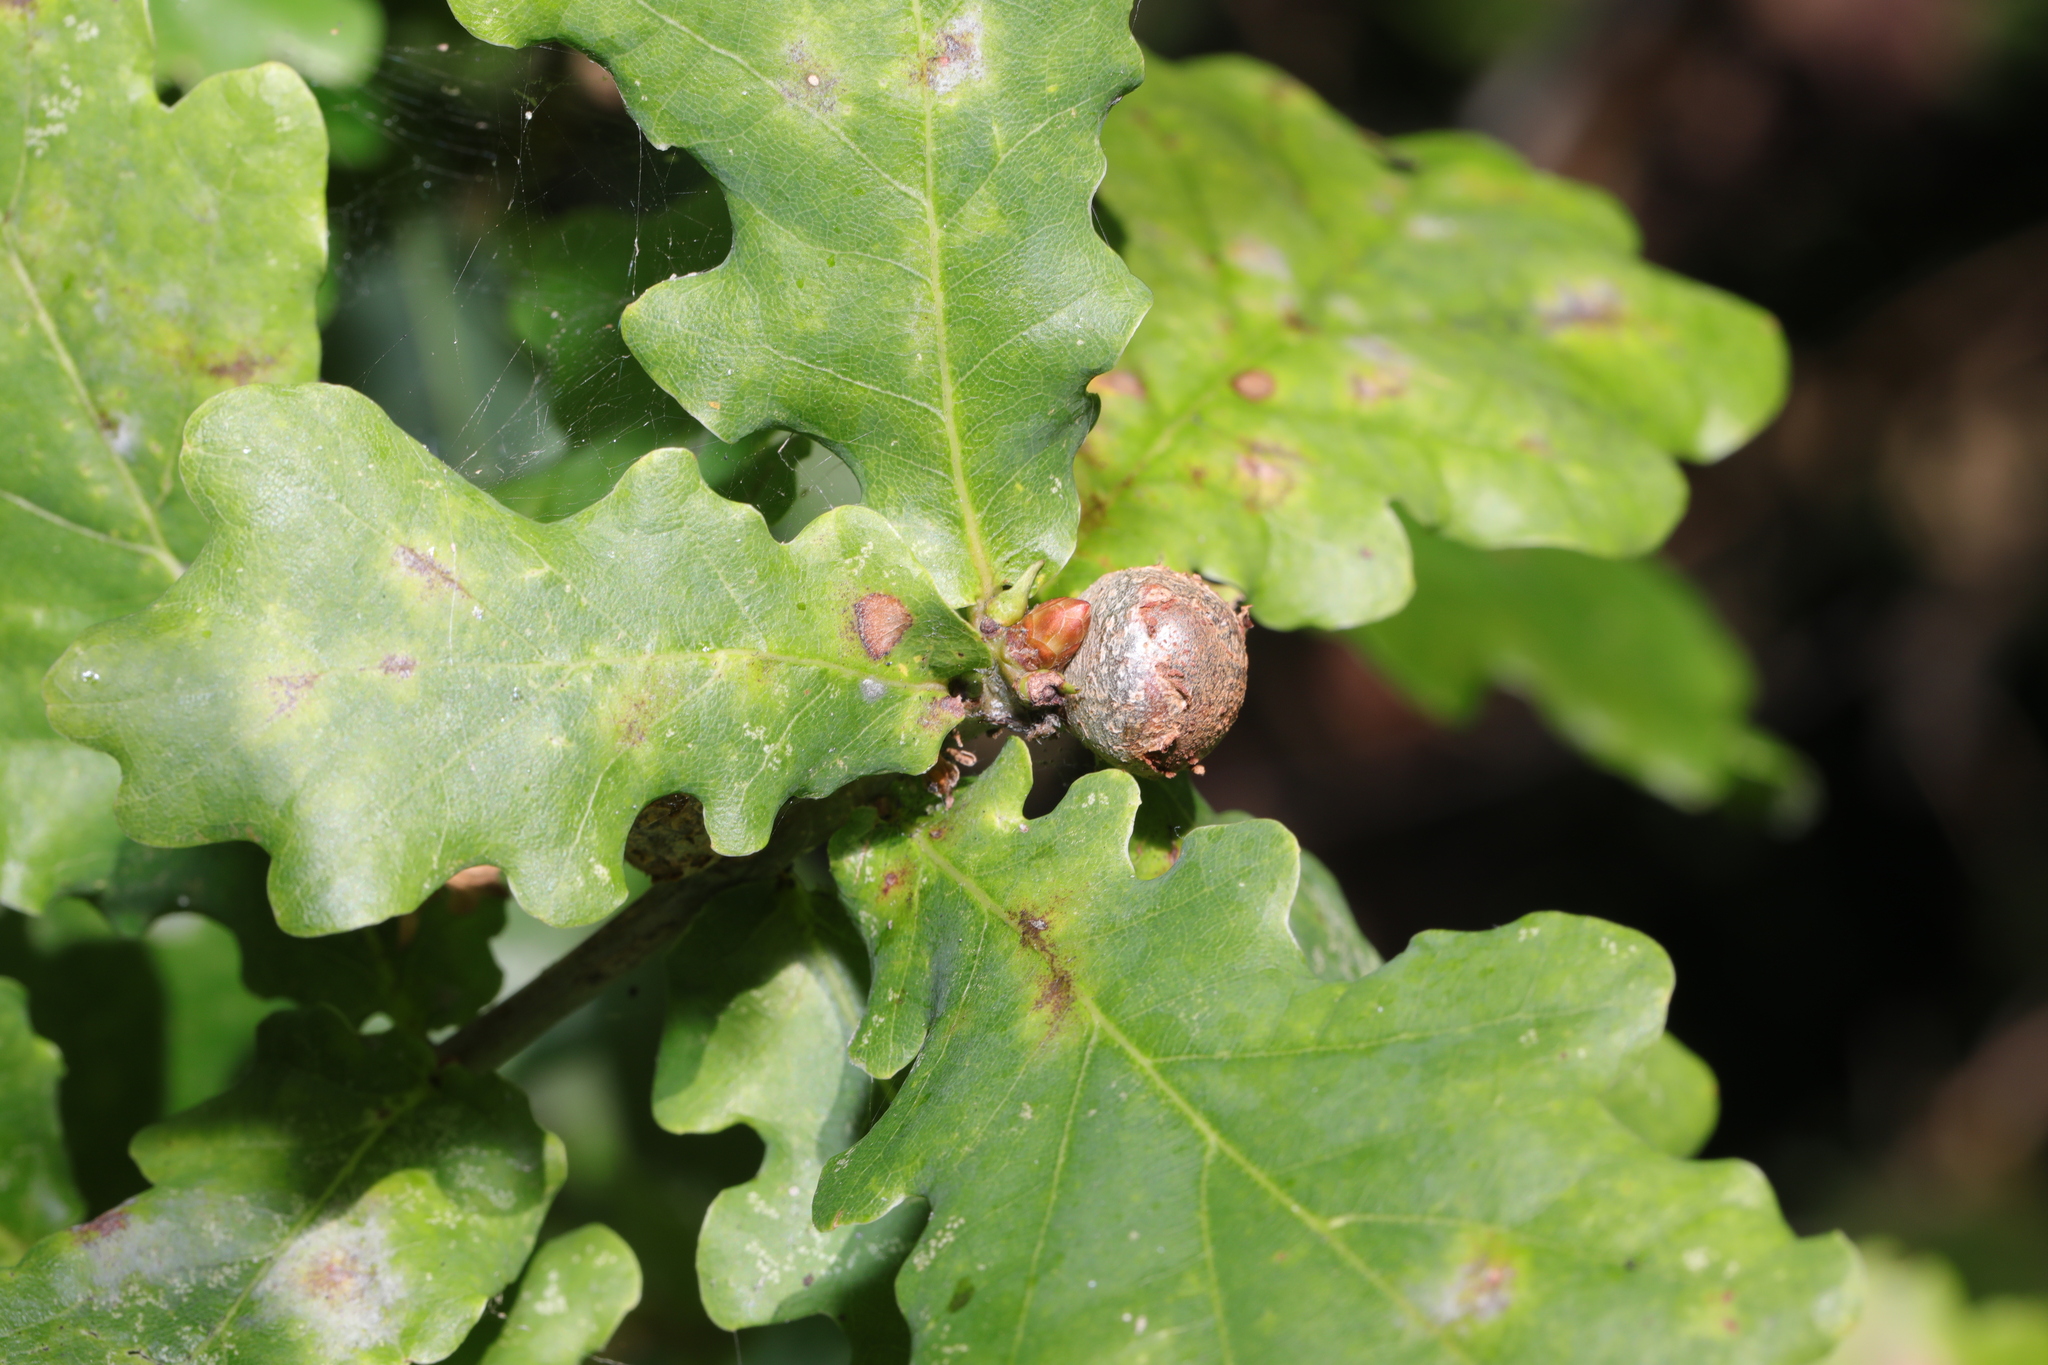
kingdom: Animalia
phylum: Arthropoda
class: Insecta
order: Hymenoptera
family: Cynipidae
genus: Andricus
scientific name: Andricus lignicolus
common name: Cola-nut gall
